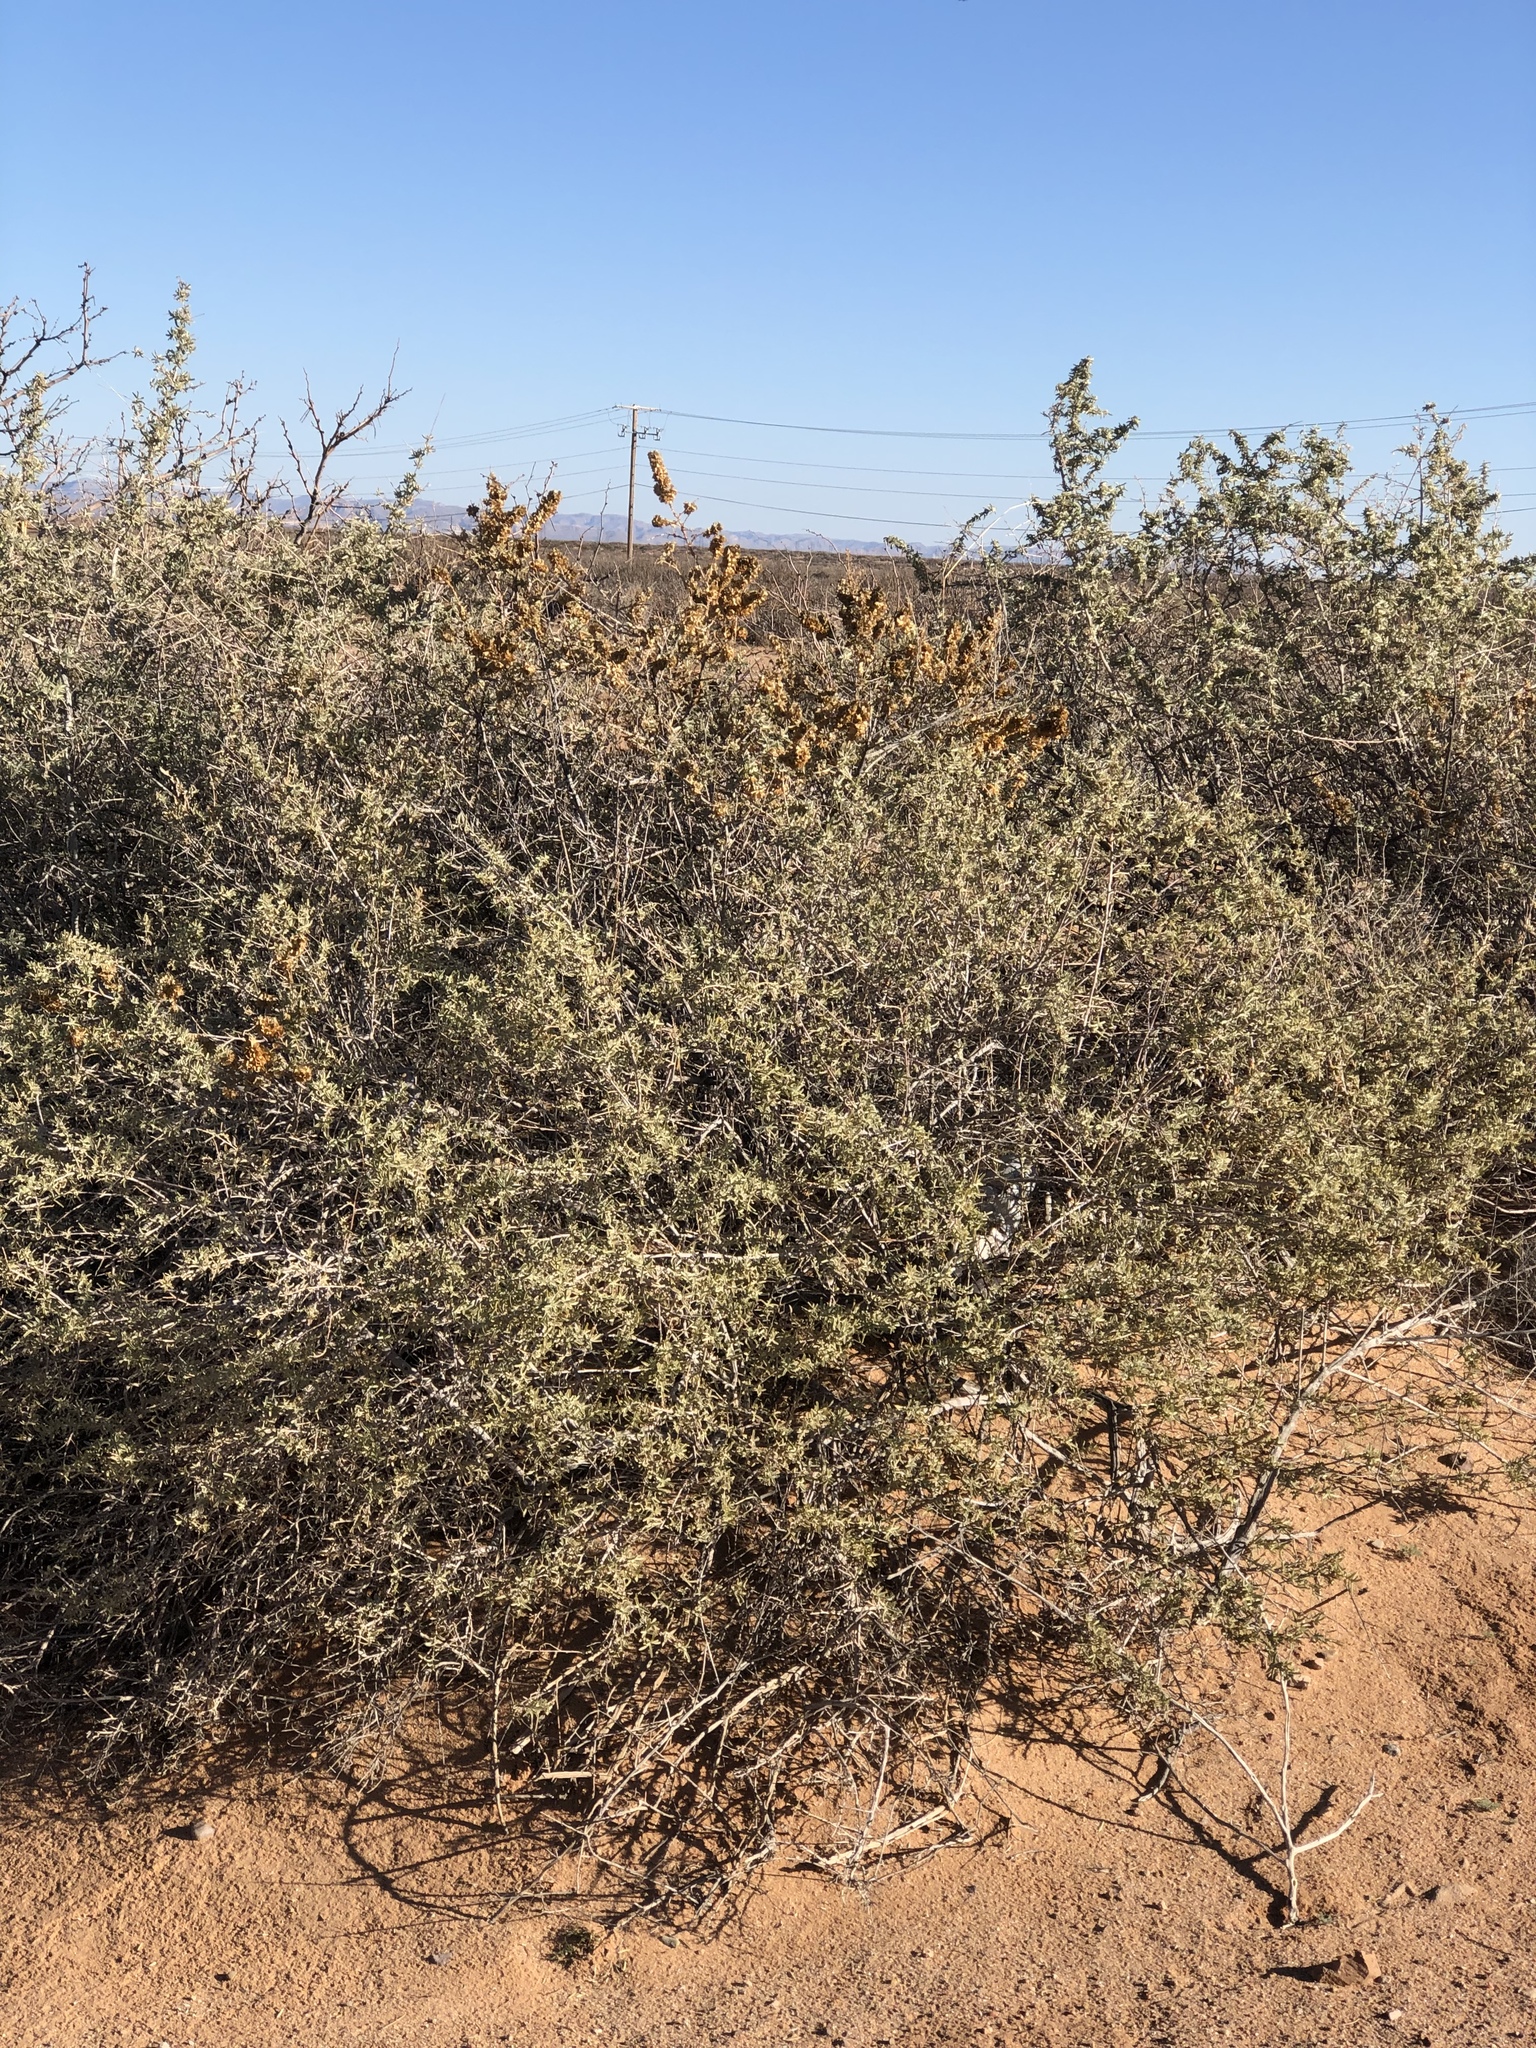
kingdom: Plantae
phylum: Tracheophyta
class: Magnoliopsida
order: Caryophyllales
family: Amaranthaceae
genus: Atriplex
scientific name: Atriplex canescens
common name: Four-wing saltbush
